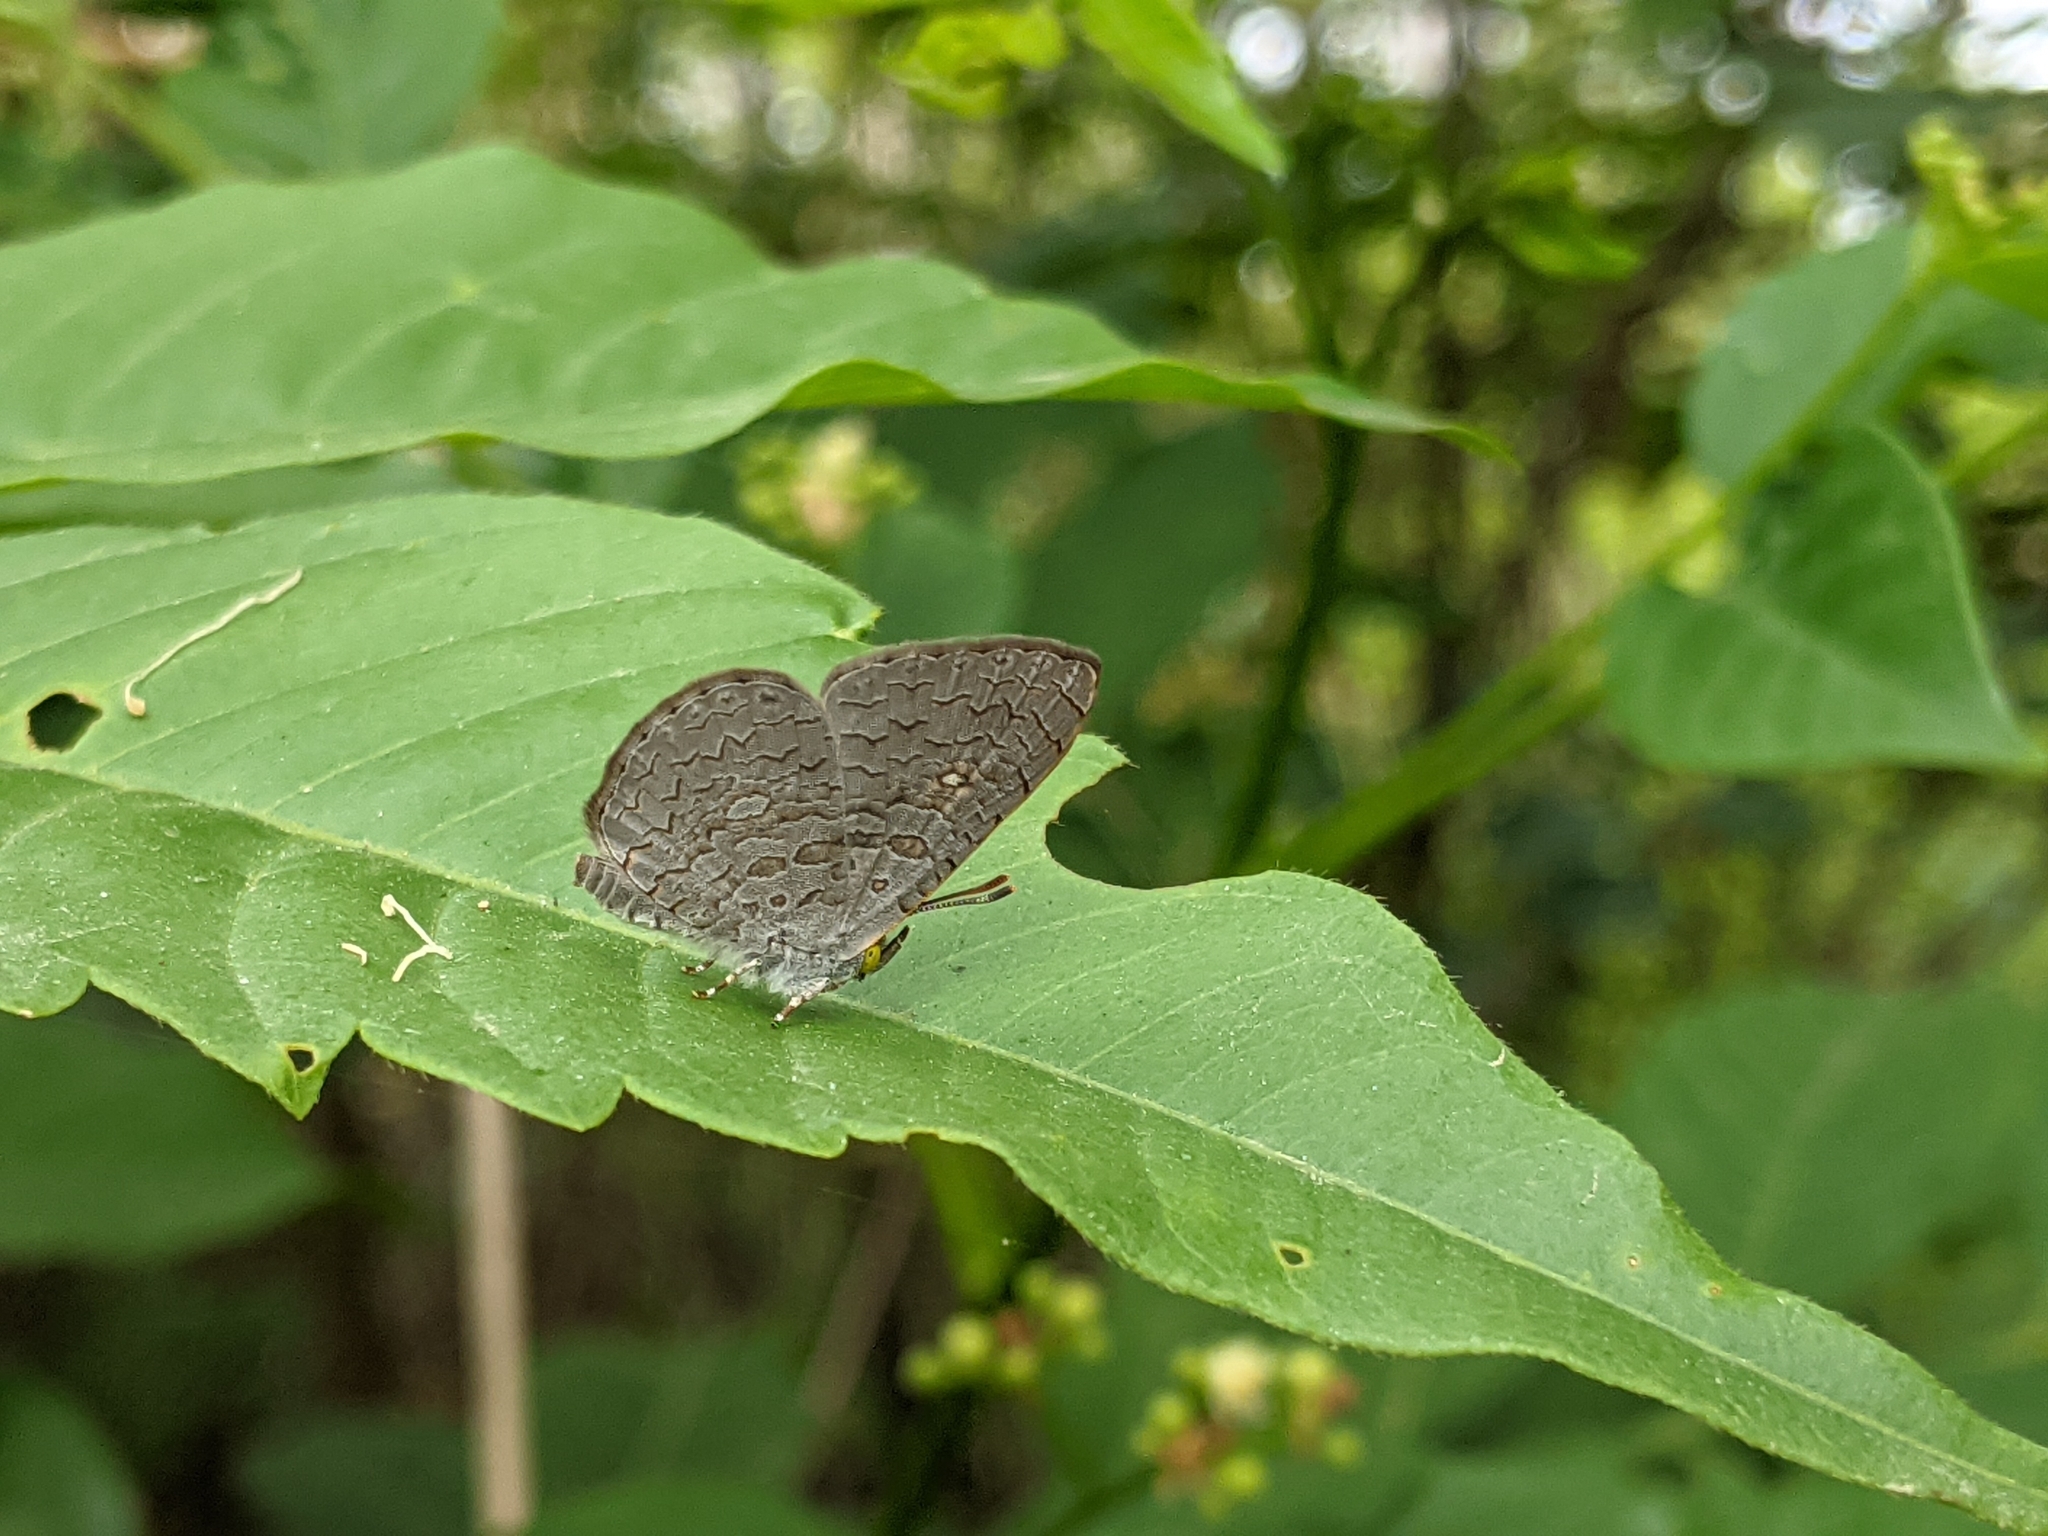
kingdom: Animalia
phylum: Arthropoda
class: Insecta
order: Lepidoptera
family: Lycaenidae
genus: Spalgis
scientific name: Spalgis epius
